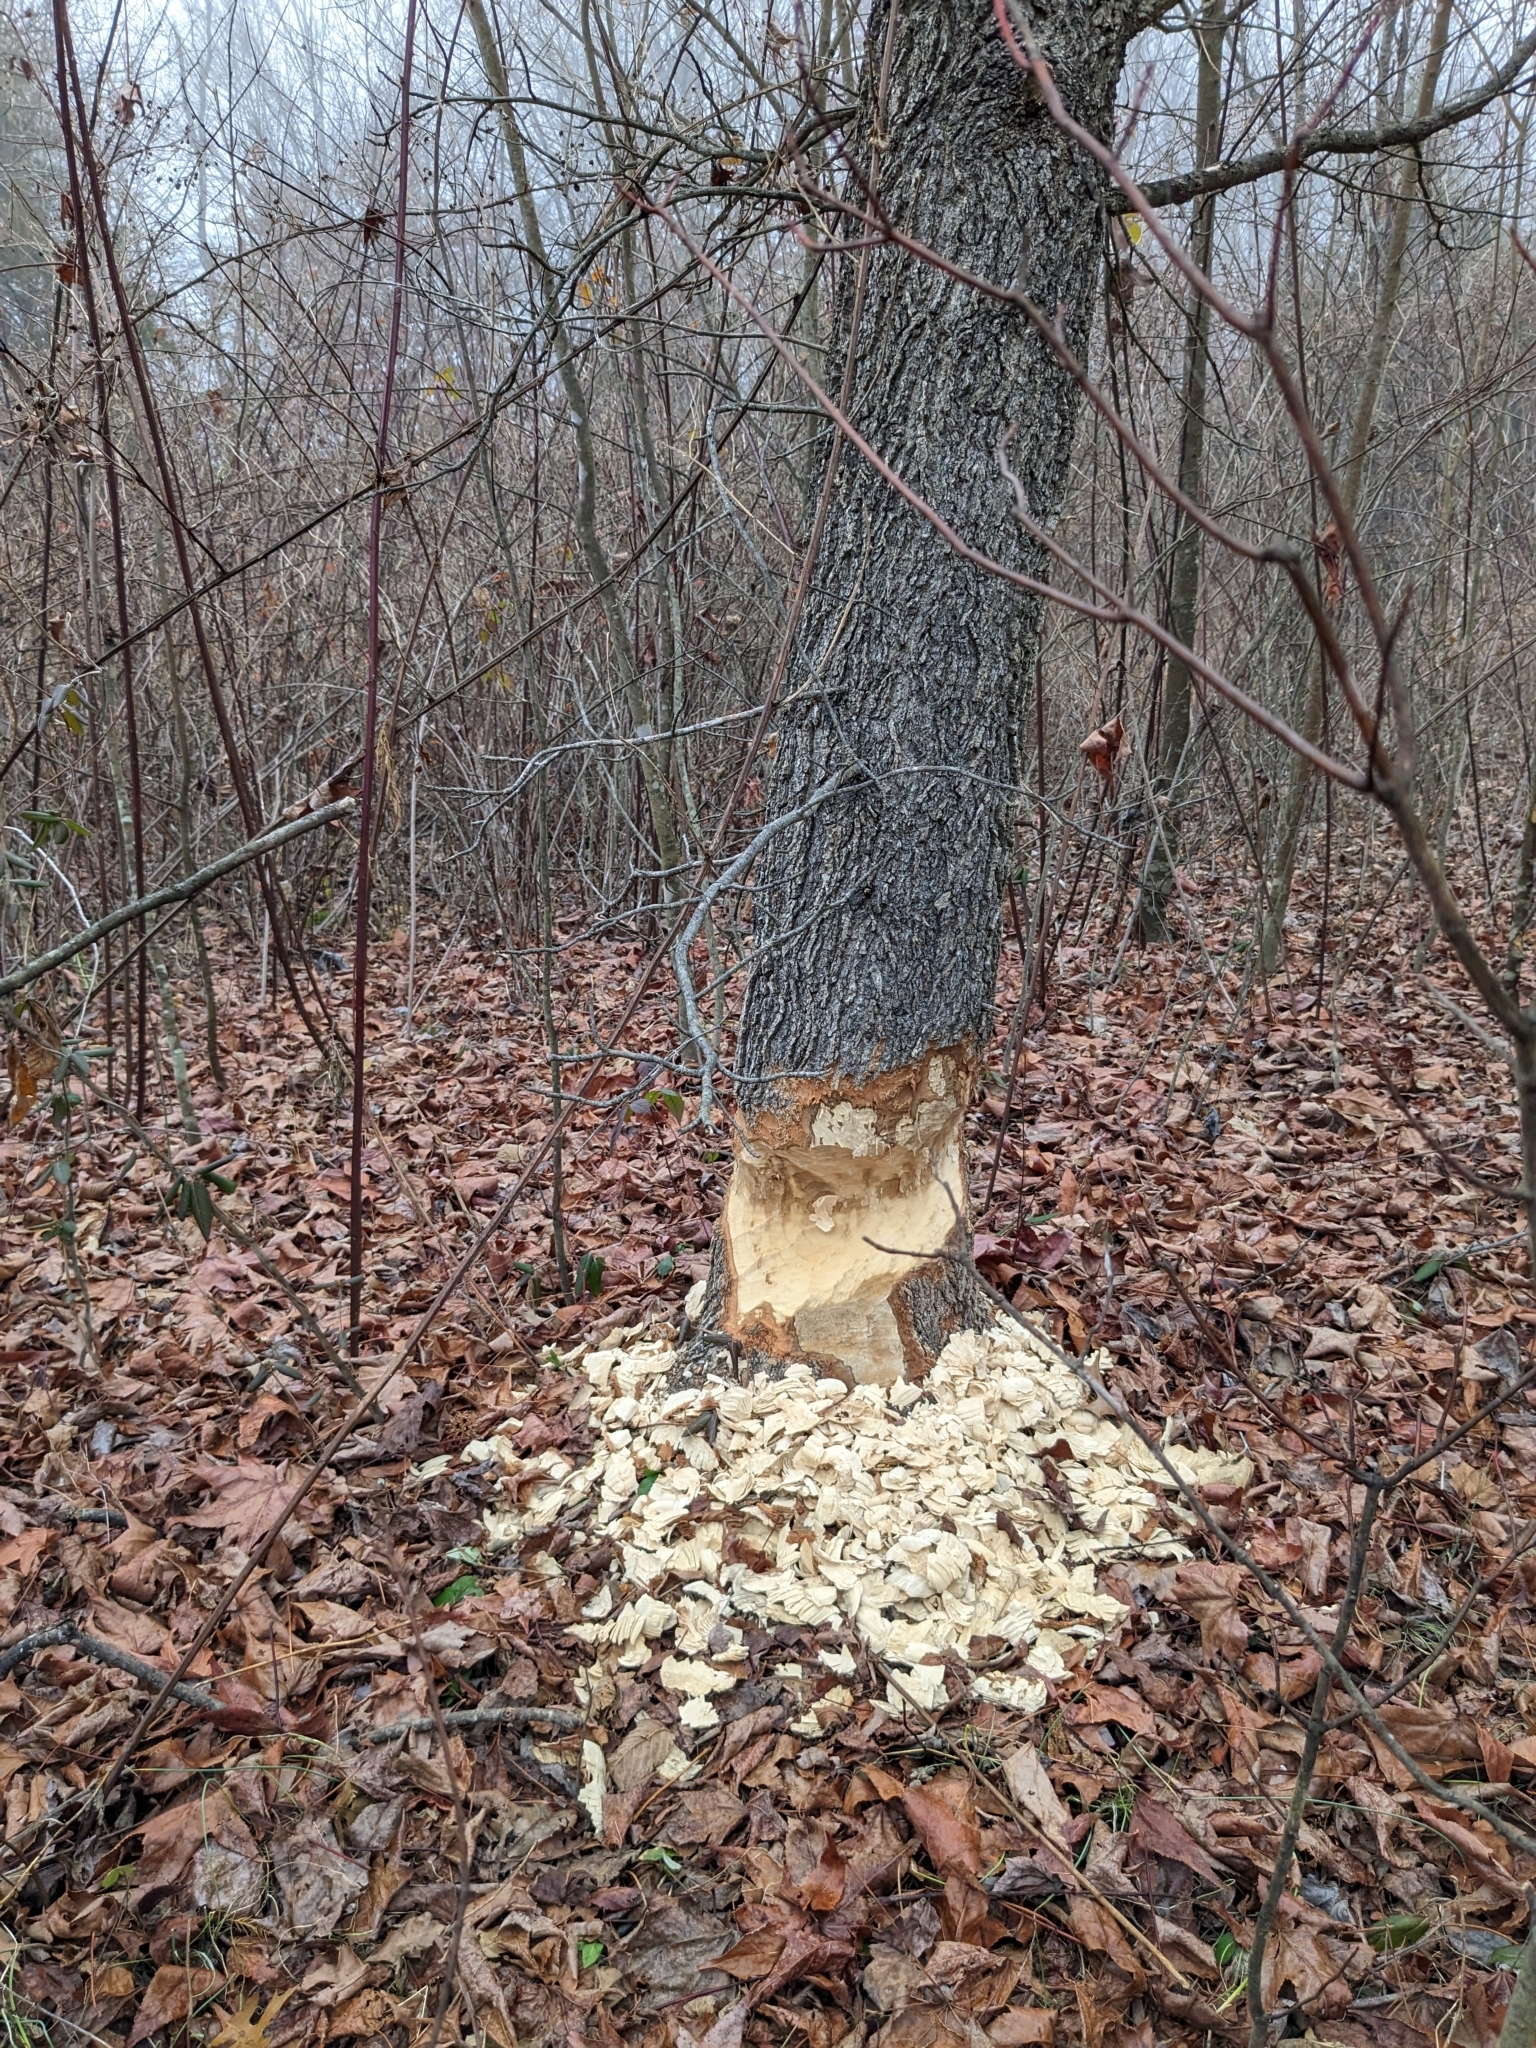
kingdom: Animalia
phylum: Chordata
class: Mammalia
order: Rodentia
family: Castoridae
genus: Castor
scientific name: Castor canadensis
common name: American beaver
